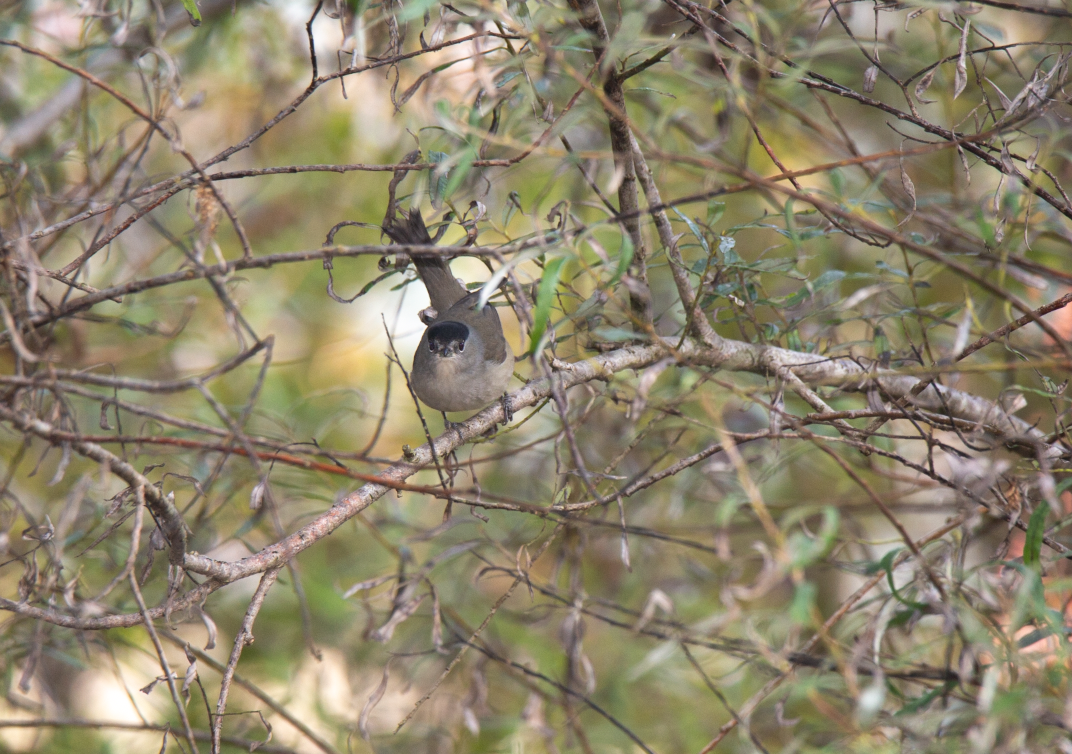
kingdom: Animalia
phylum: Chordata
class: Aves
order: Passeriformes
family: Sylviidae
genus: Sylvia
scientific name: Sylvia atricapilla
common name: Eurasian blackcap
